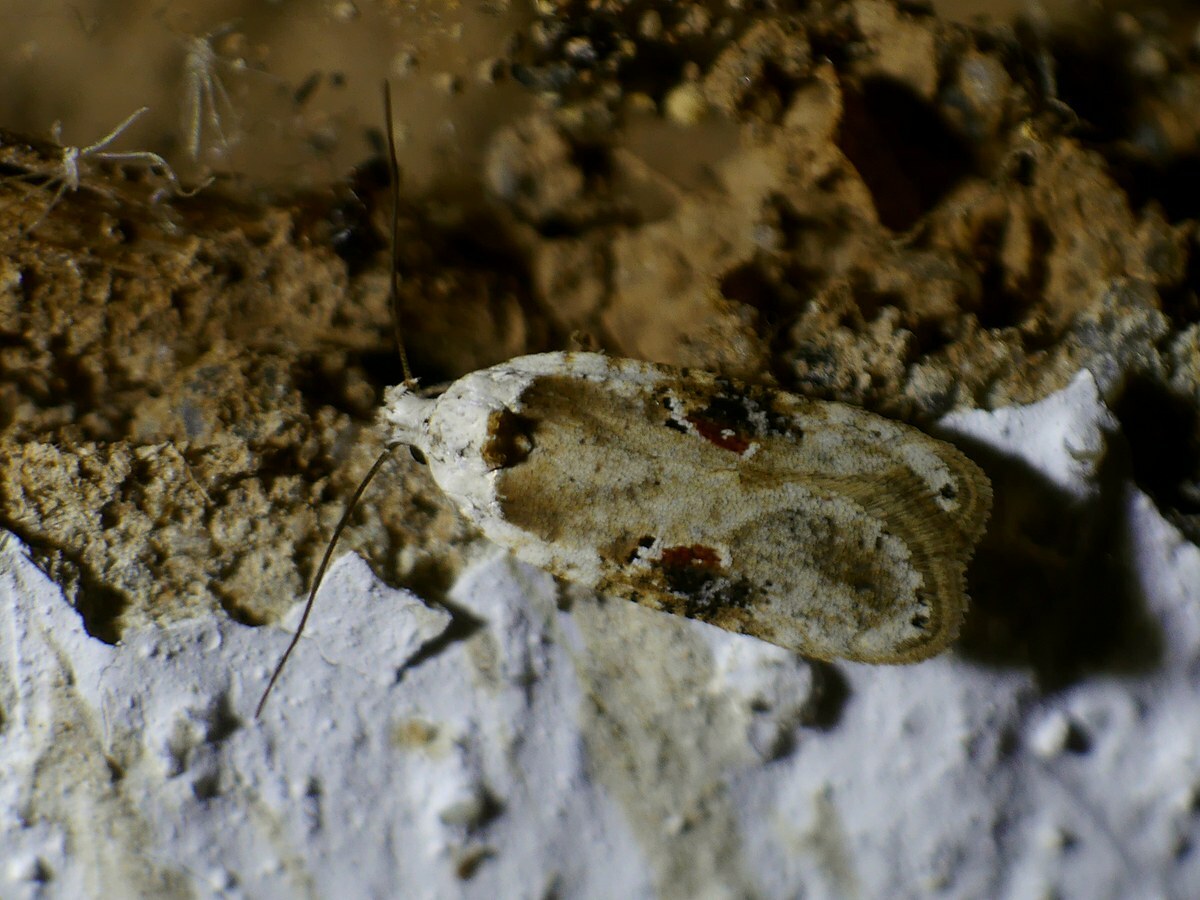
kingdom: Animalia
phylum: Arthropoda
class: Insecta
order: Lepidoptera
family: Depressariidae
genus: Agonopterix
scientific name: Agonopterix alstroemeriana
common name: Moth
